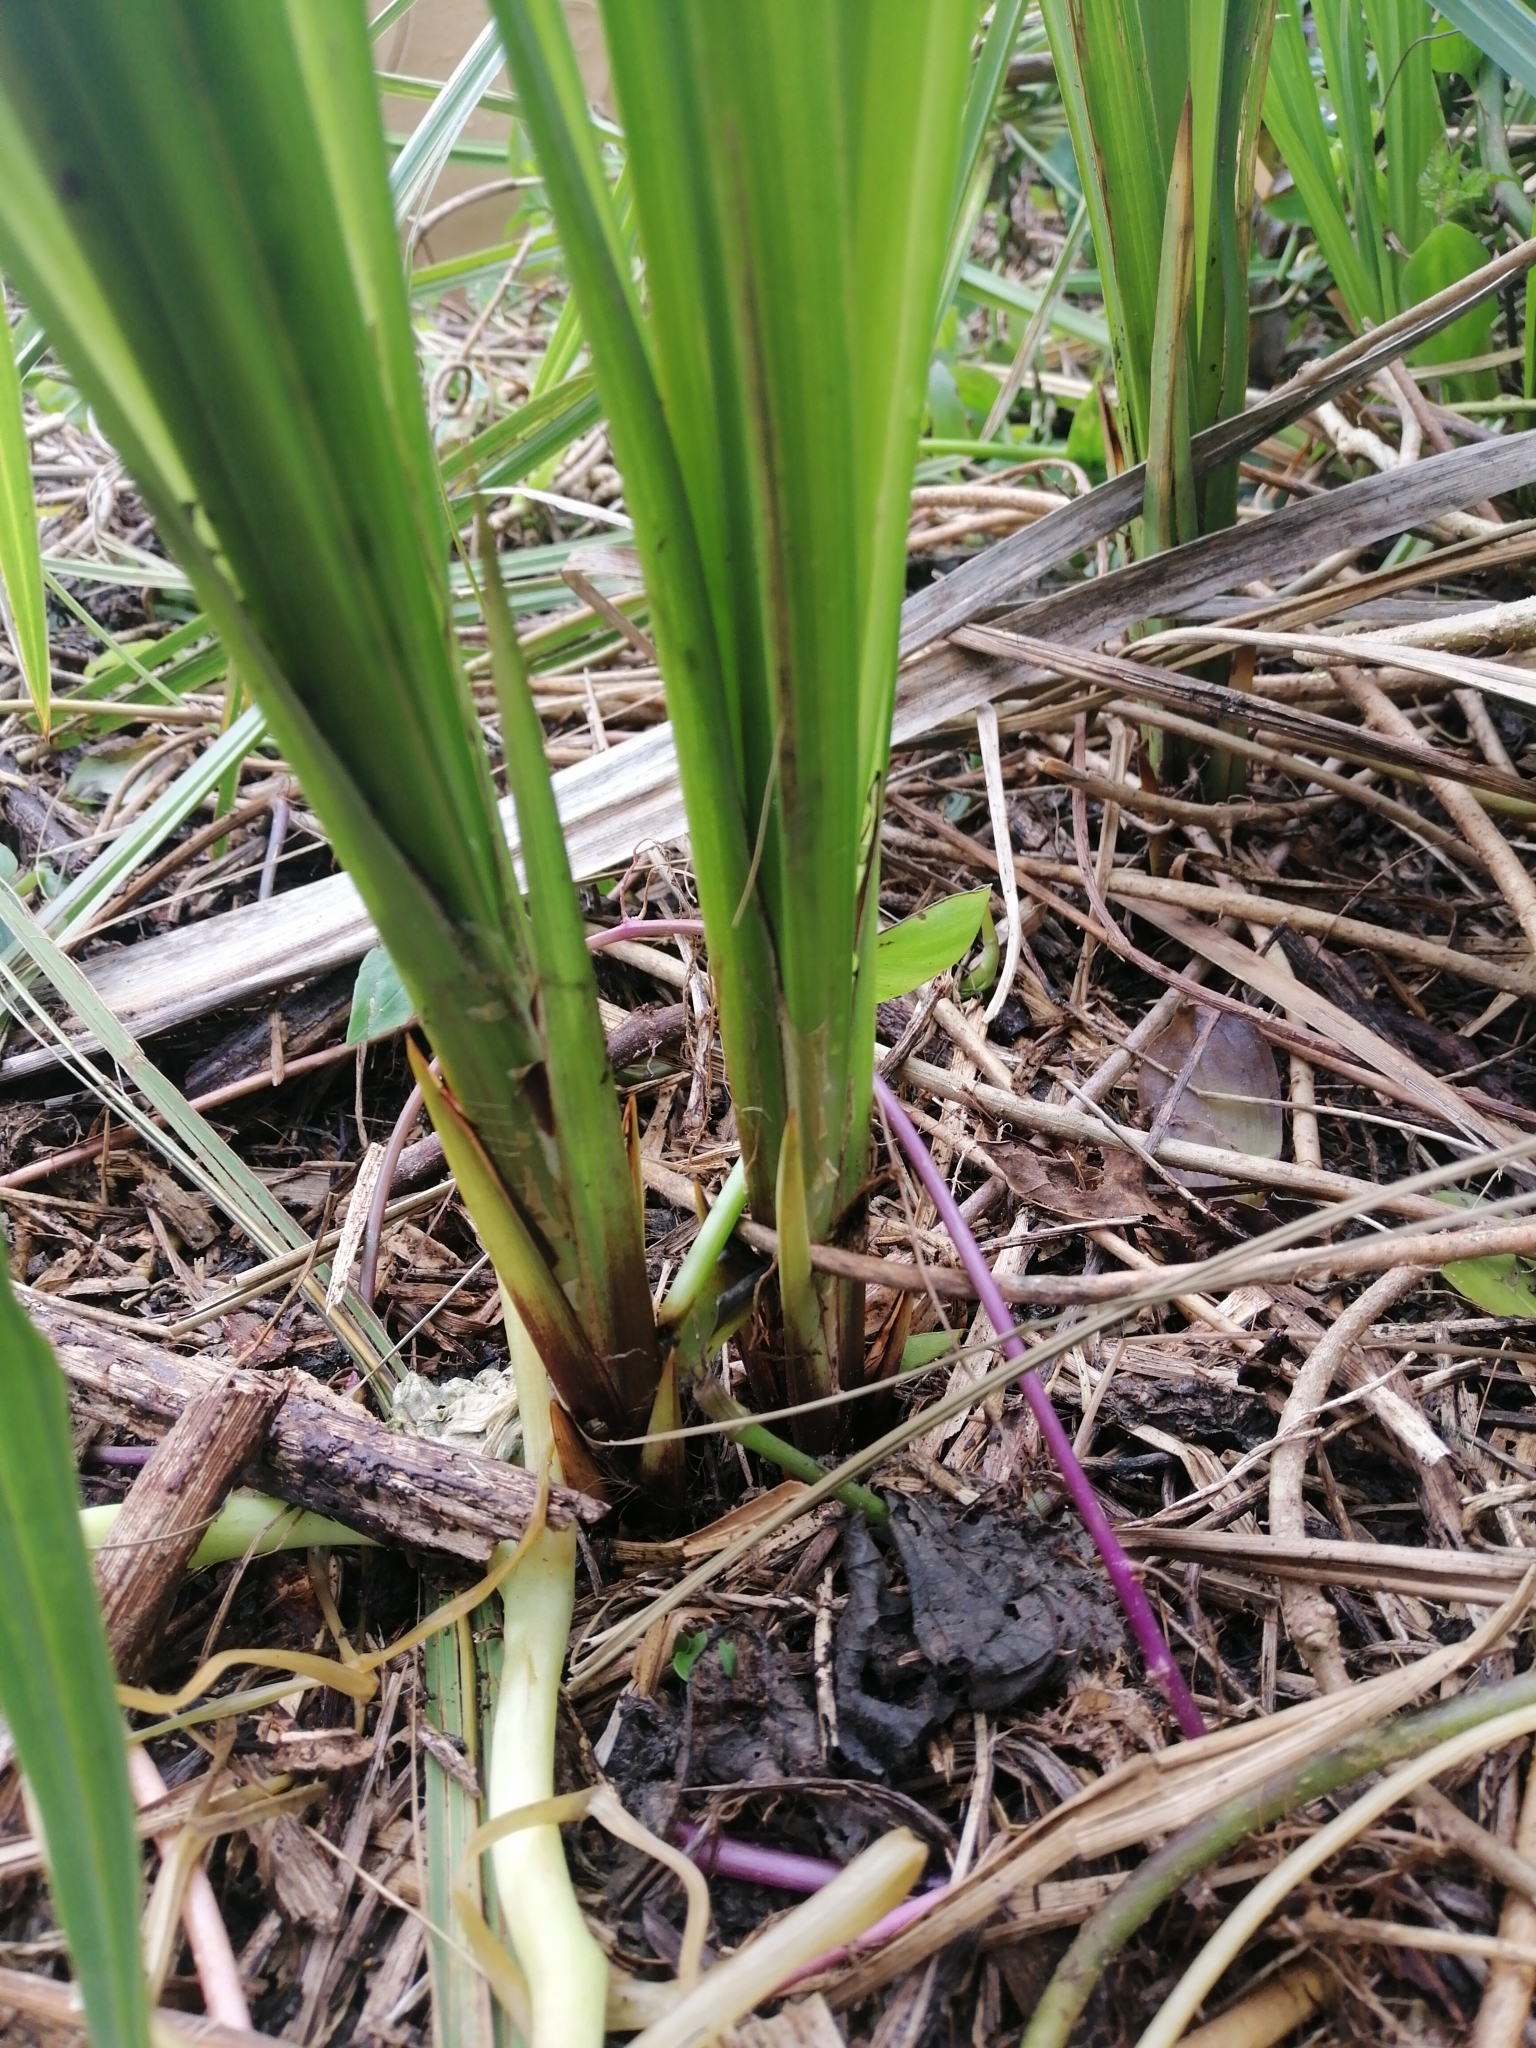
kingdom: Plantae
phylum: Tracheophyta
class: Liliopsida
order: Poales
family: Cyperaceae
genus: Carex
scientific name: Carex geminata
